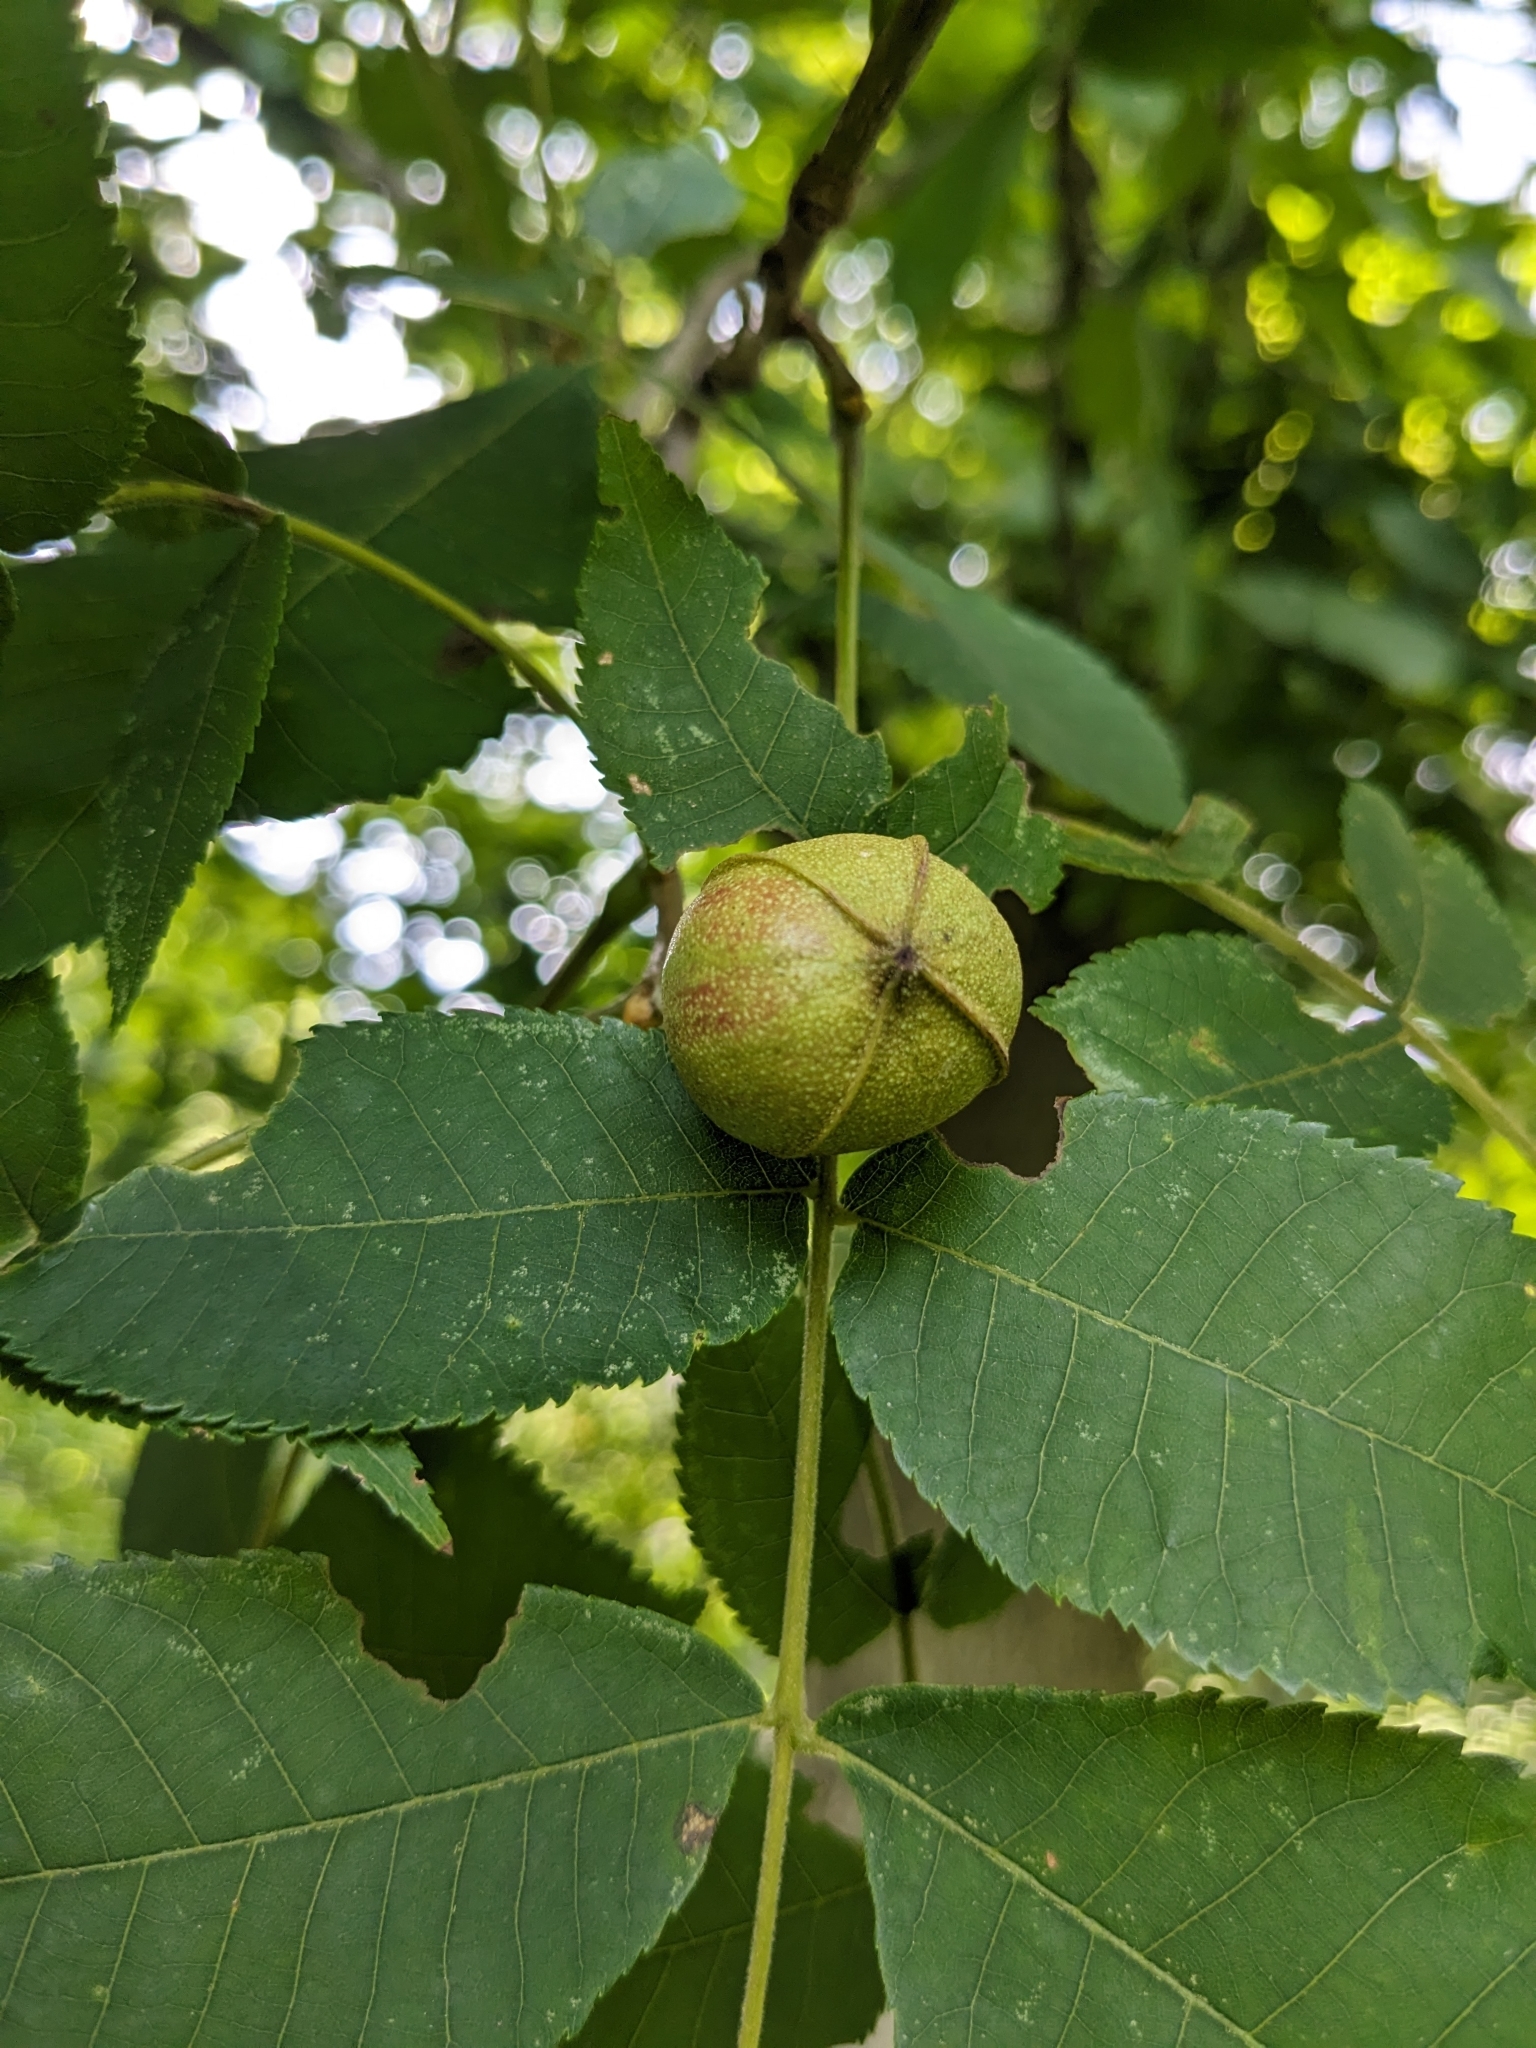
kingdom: Plantae
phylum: Tracheophyta
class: Magnoliopsida
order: Fagales
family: Juglandaceae
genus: Carya
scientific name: Carya cordiformis
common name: Bitternut hickory
